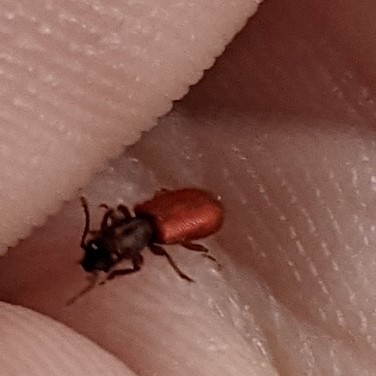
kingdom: Animalia
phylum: Arthropoda
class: Insecta
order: Coleoptera
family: Thanerocleridae
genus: Zenodosus
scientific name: Zenodosus sanguineus
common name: Blood-colored checkered beetle
